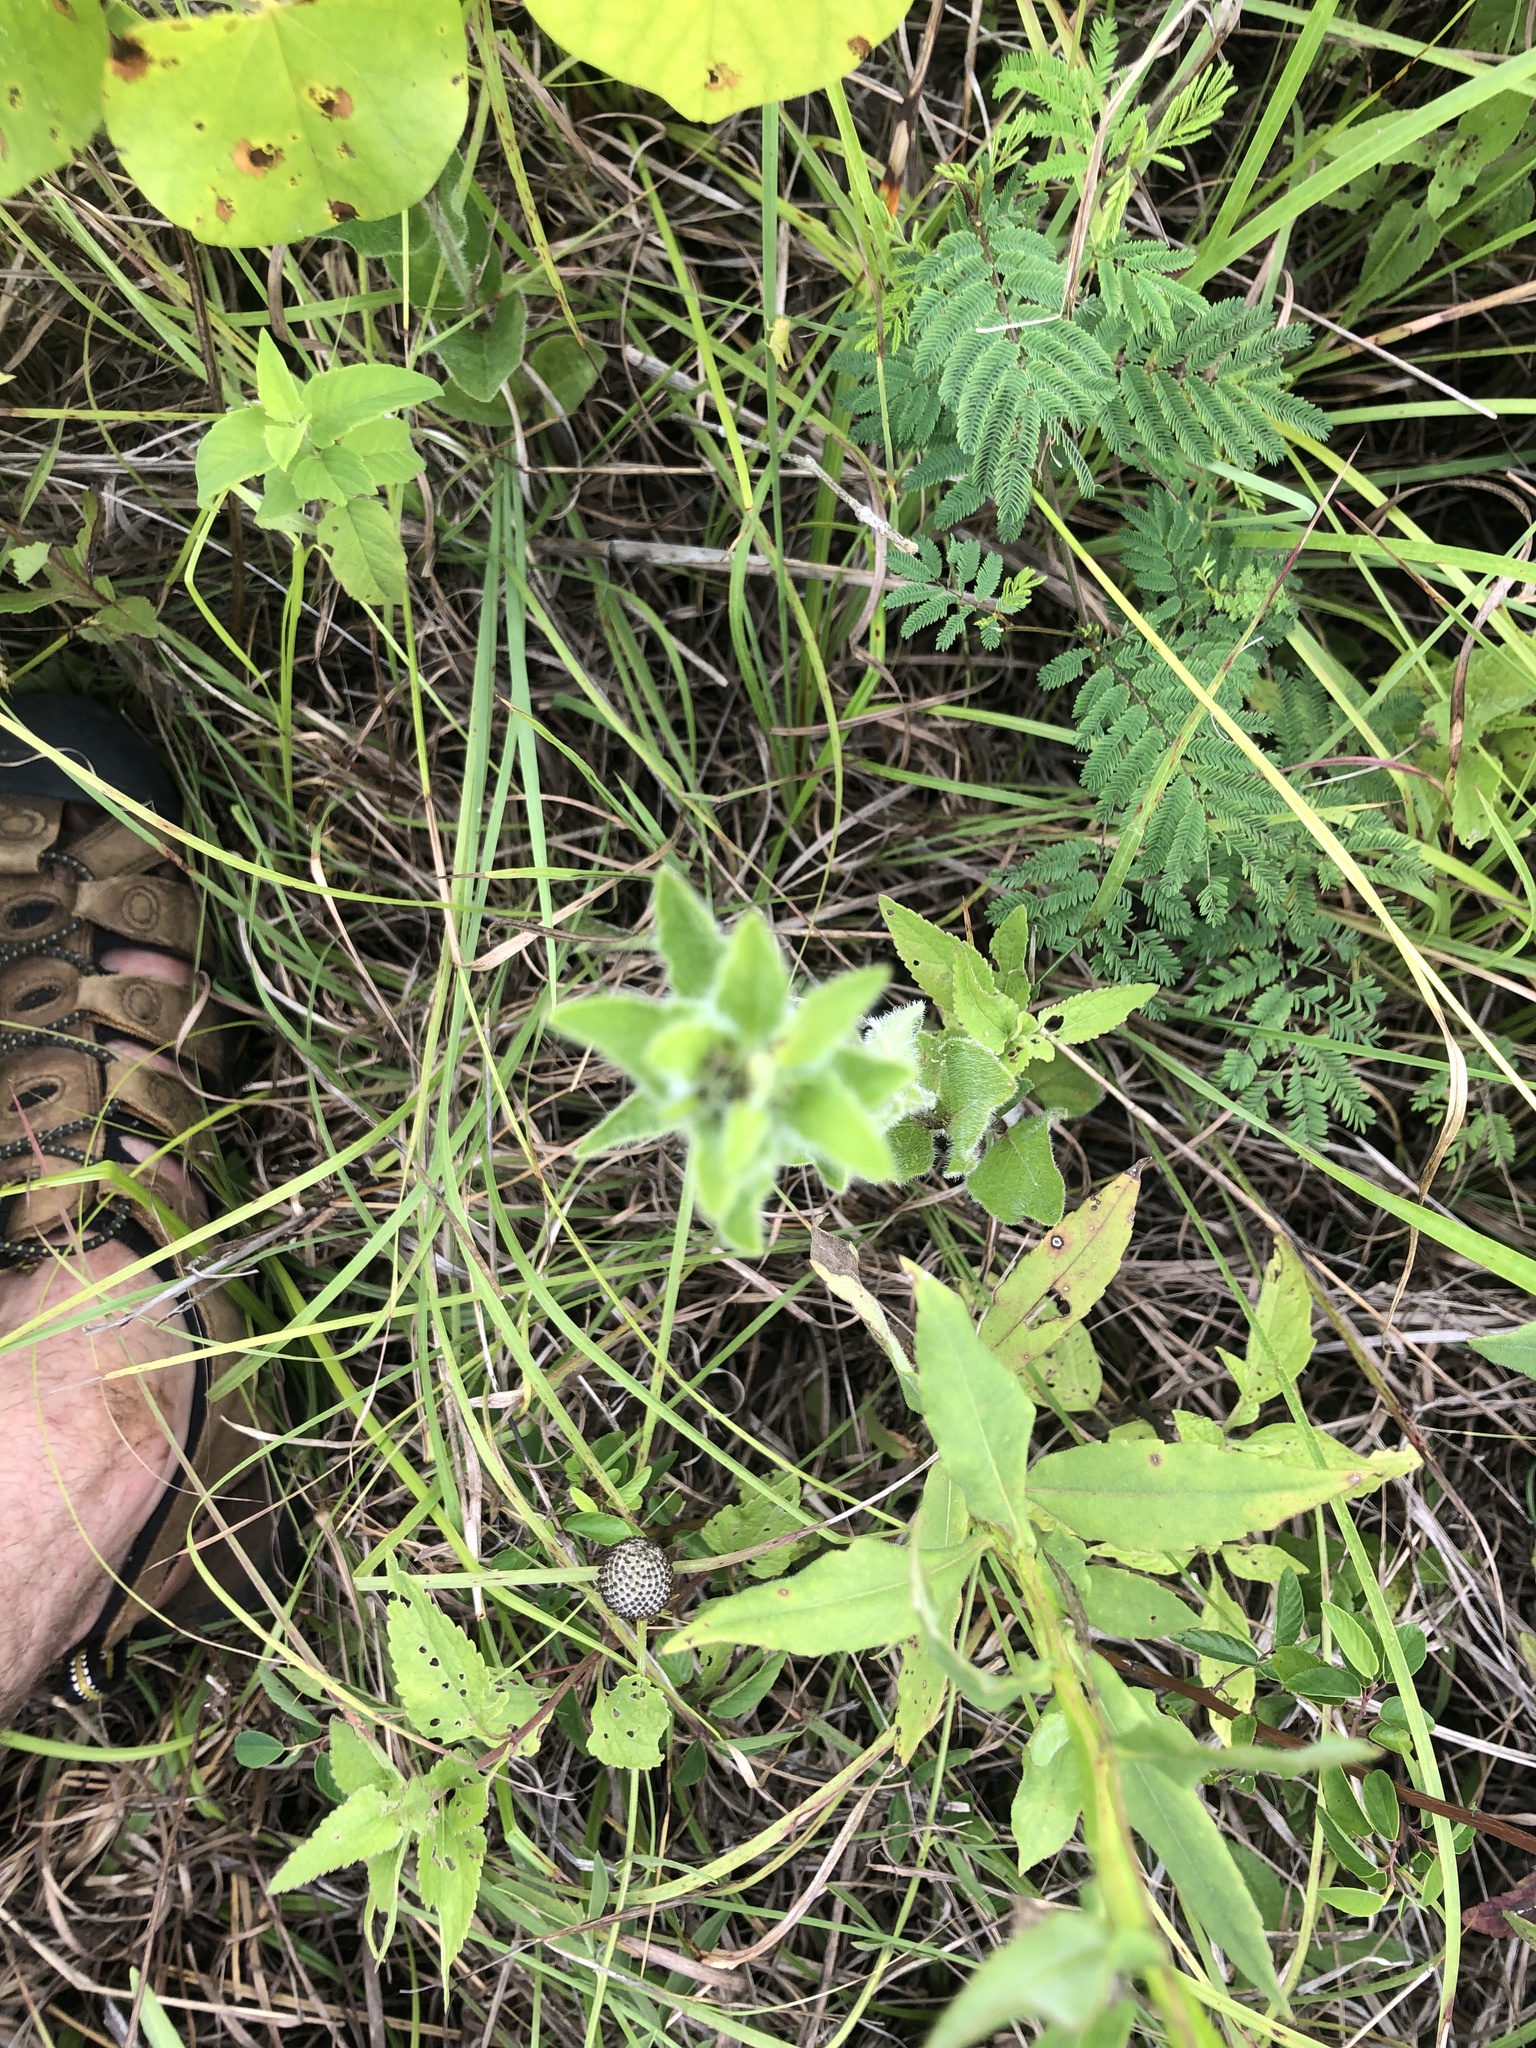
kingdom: Plantae
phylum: Tracheophyta
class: Magnoliopsida
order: Lamiales
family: Acanthaceae
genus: Ruellia
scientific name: Ruellia humilis
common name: Fringe-leaf ruellia
